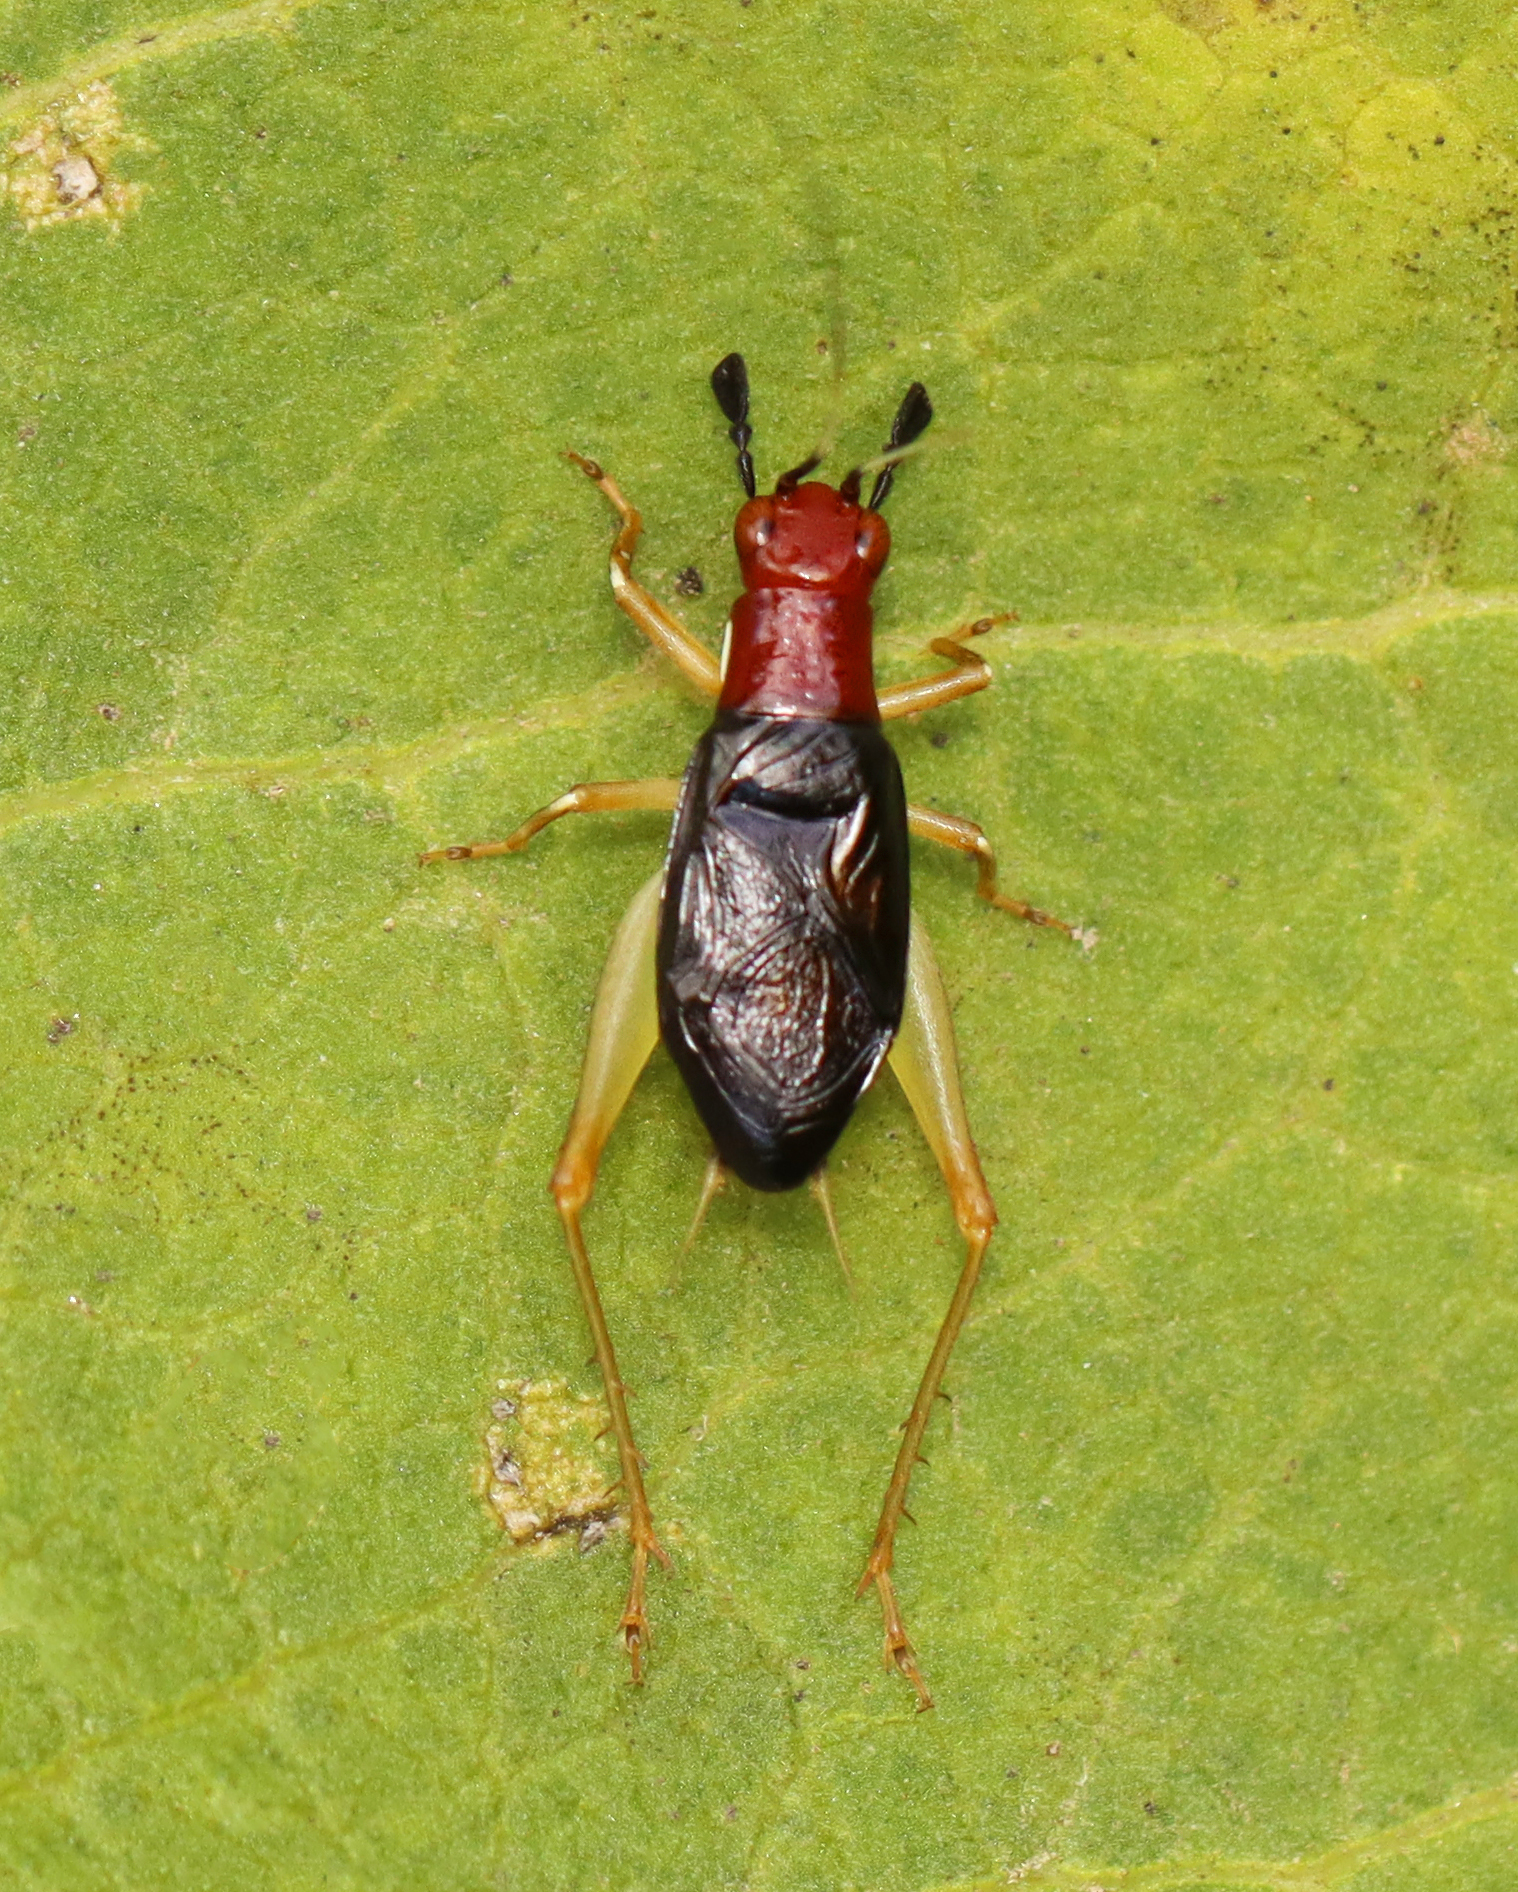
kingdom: Animalia
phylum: Arthropoda
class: Insecta
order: Orthoptera
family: Trigonidiidae
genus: Phyllopalpus
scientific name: Phyllopalpus pulchellus
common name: Handsome trig
